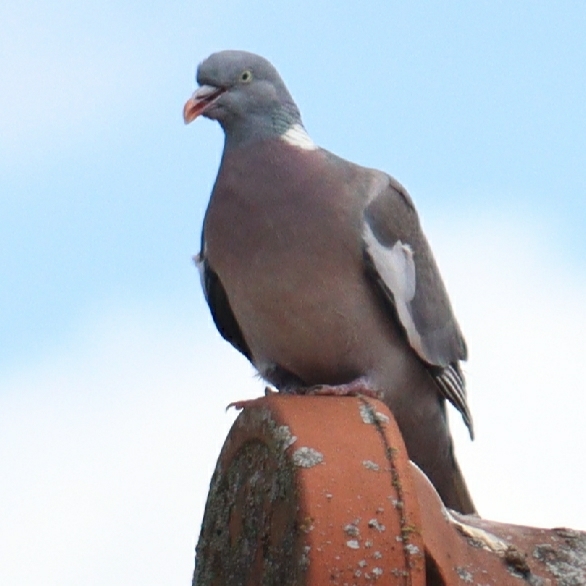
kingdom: Animalia
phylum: Chordata
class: Aves
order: Columbiformes
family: Columbidae
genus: Columba
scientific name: Columba palumbus
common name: Common wood pigeon
